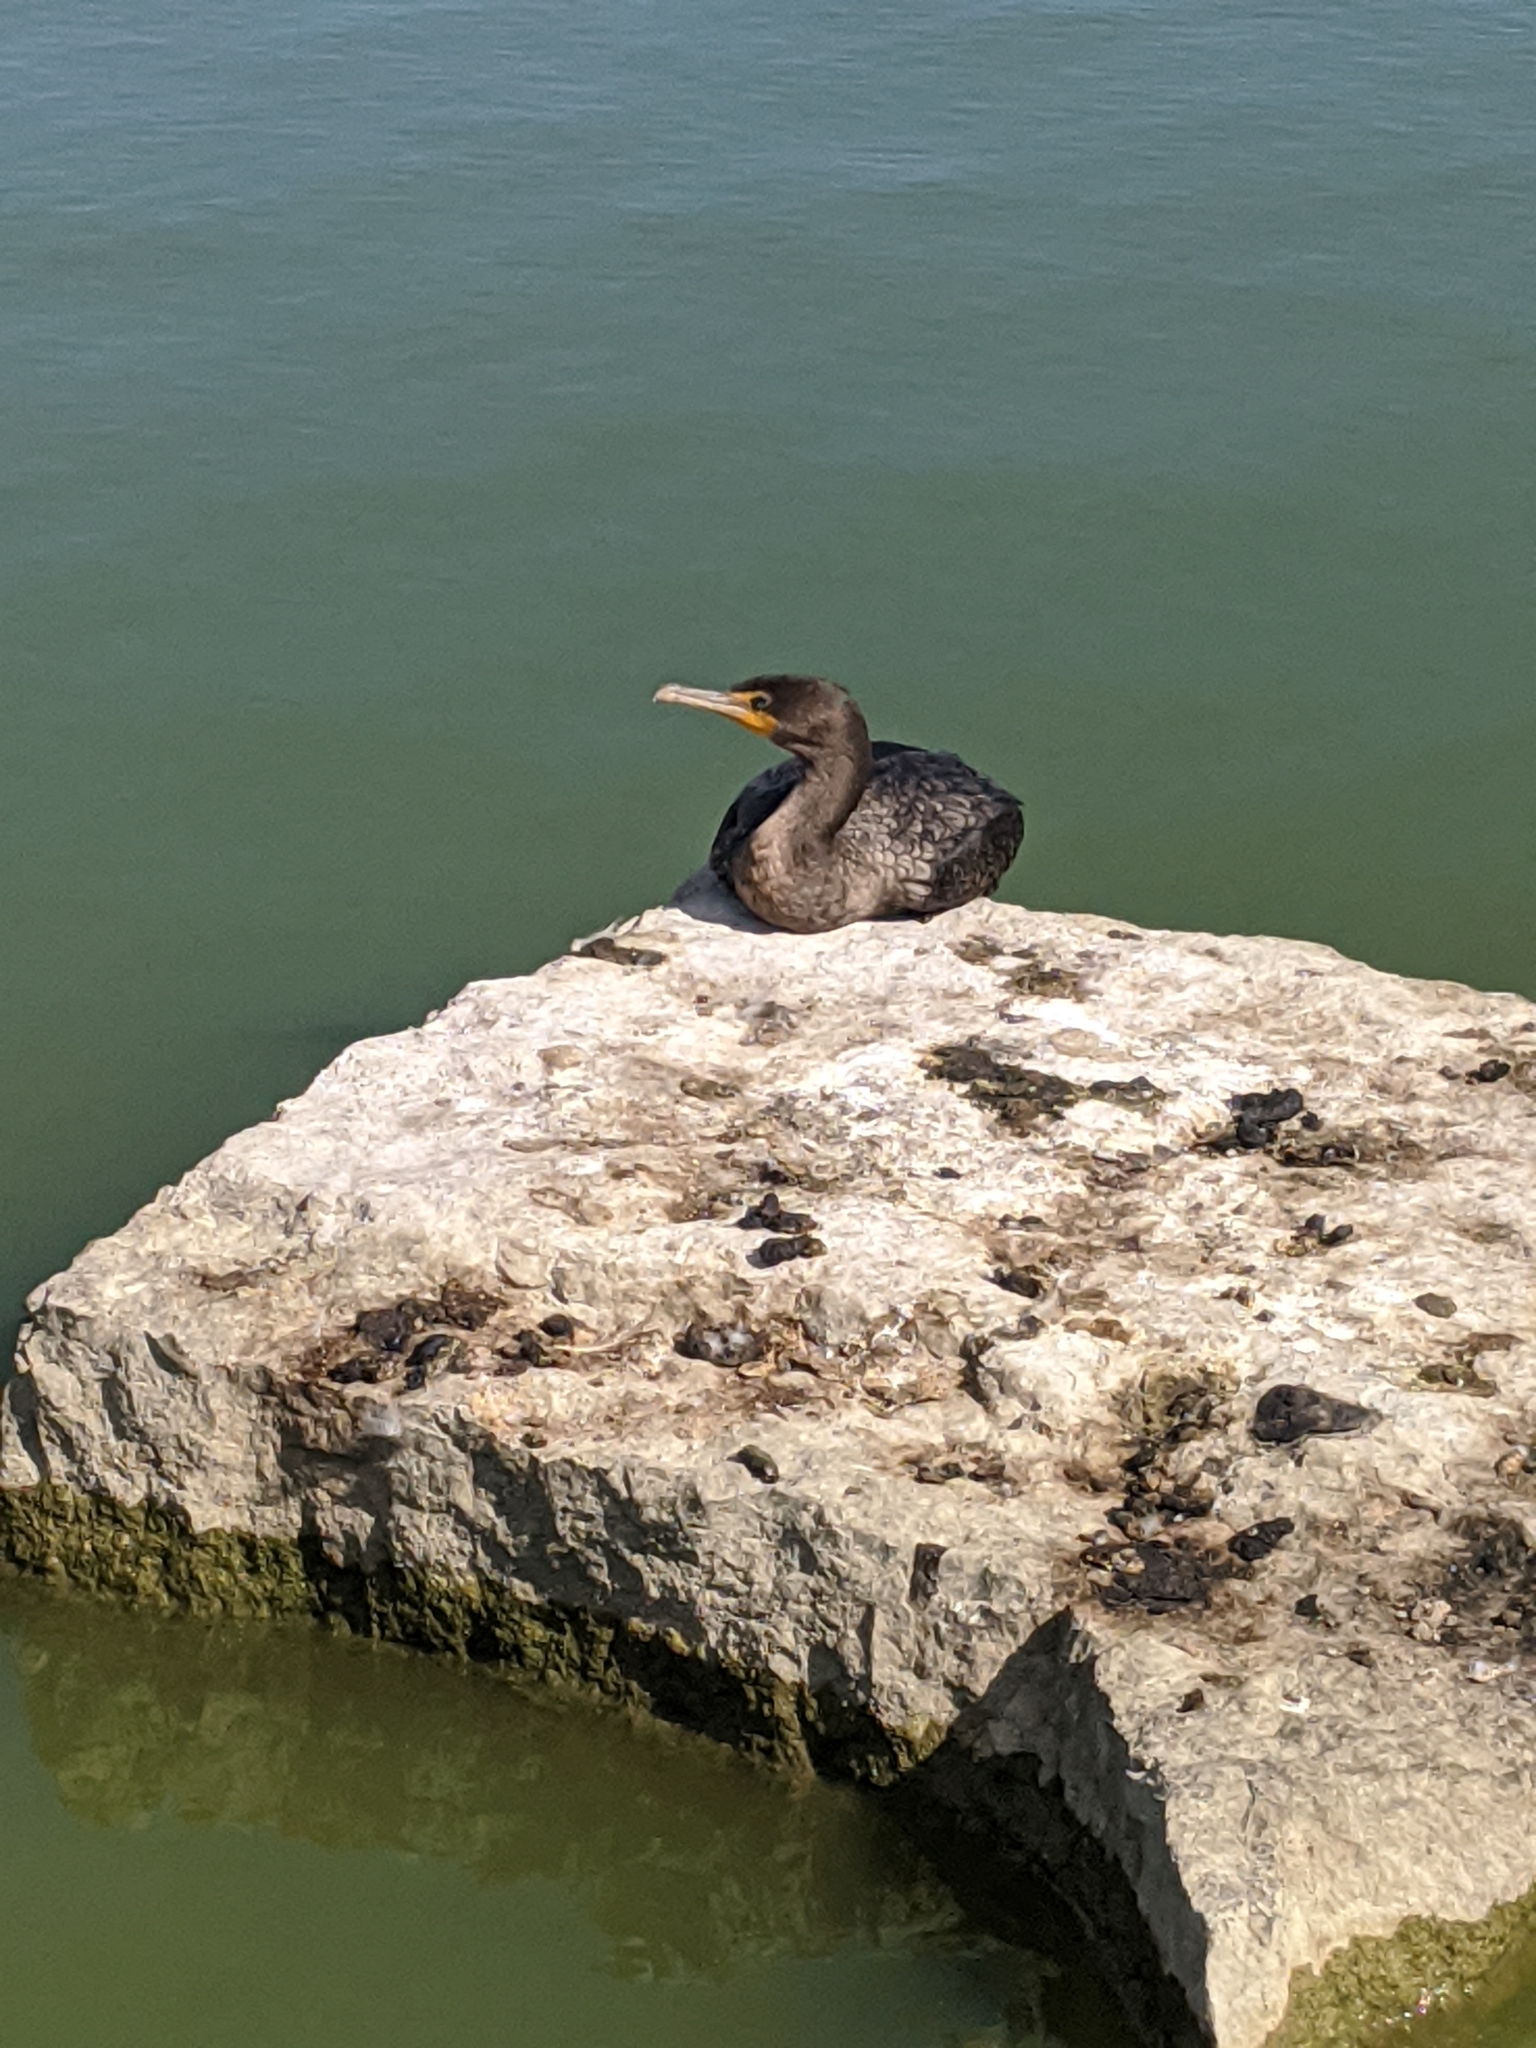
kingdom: Animalia
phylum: Chordata
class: Aves
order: Suliformes
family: Phalacrocoracidae
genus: Phalacrocorax
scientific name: Phalacrocorax auritus
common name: Double-crested cormorant
